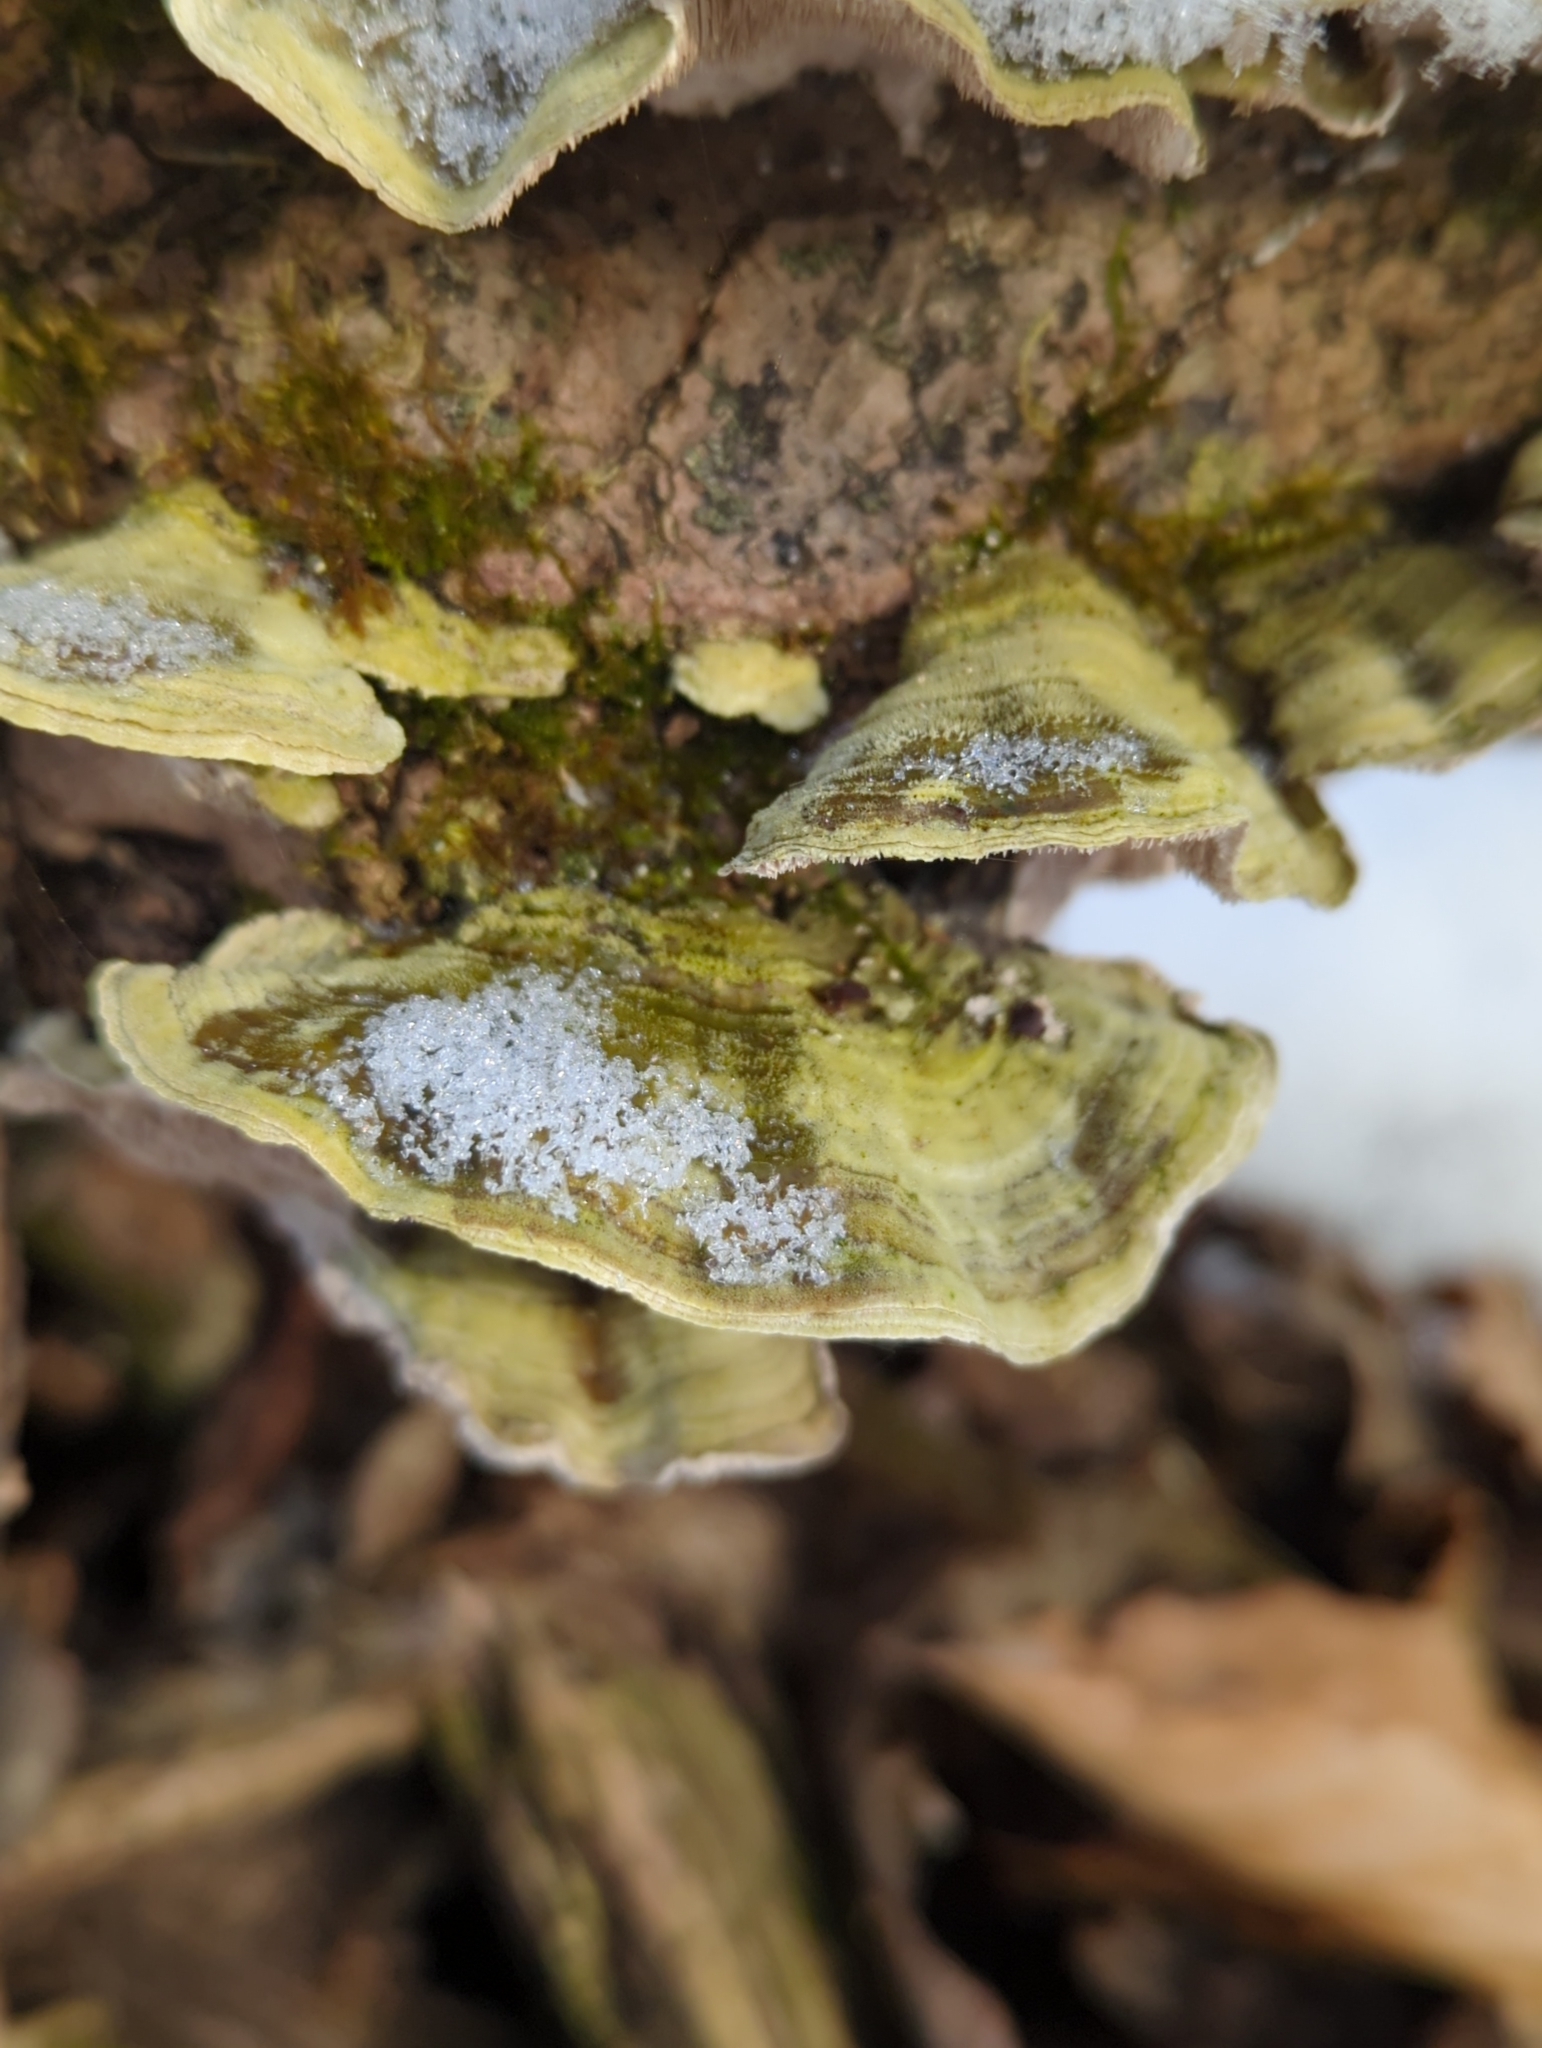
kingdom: Fungi
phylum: Basidiomycota
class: Agaricomycetes
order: Polyporales
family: Cerrenaceae
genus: Cerrena
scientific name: Cerrena unicolor
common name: Mossy maze polypore
